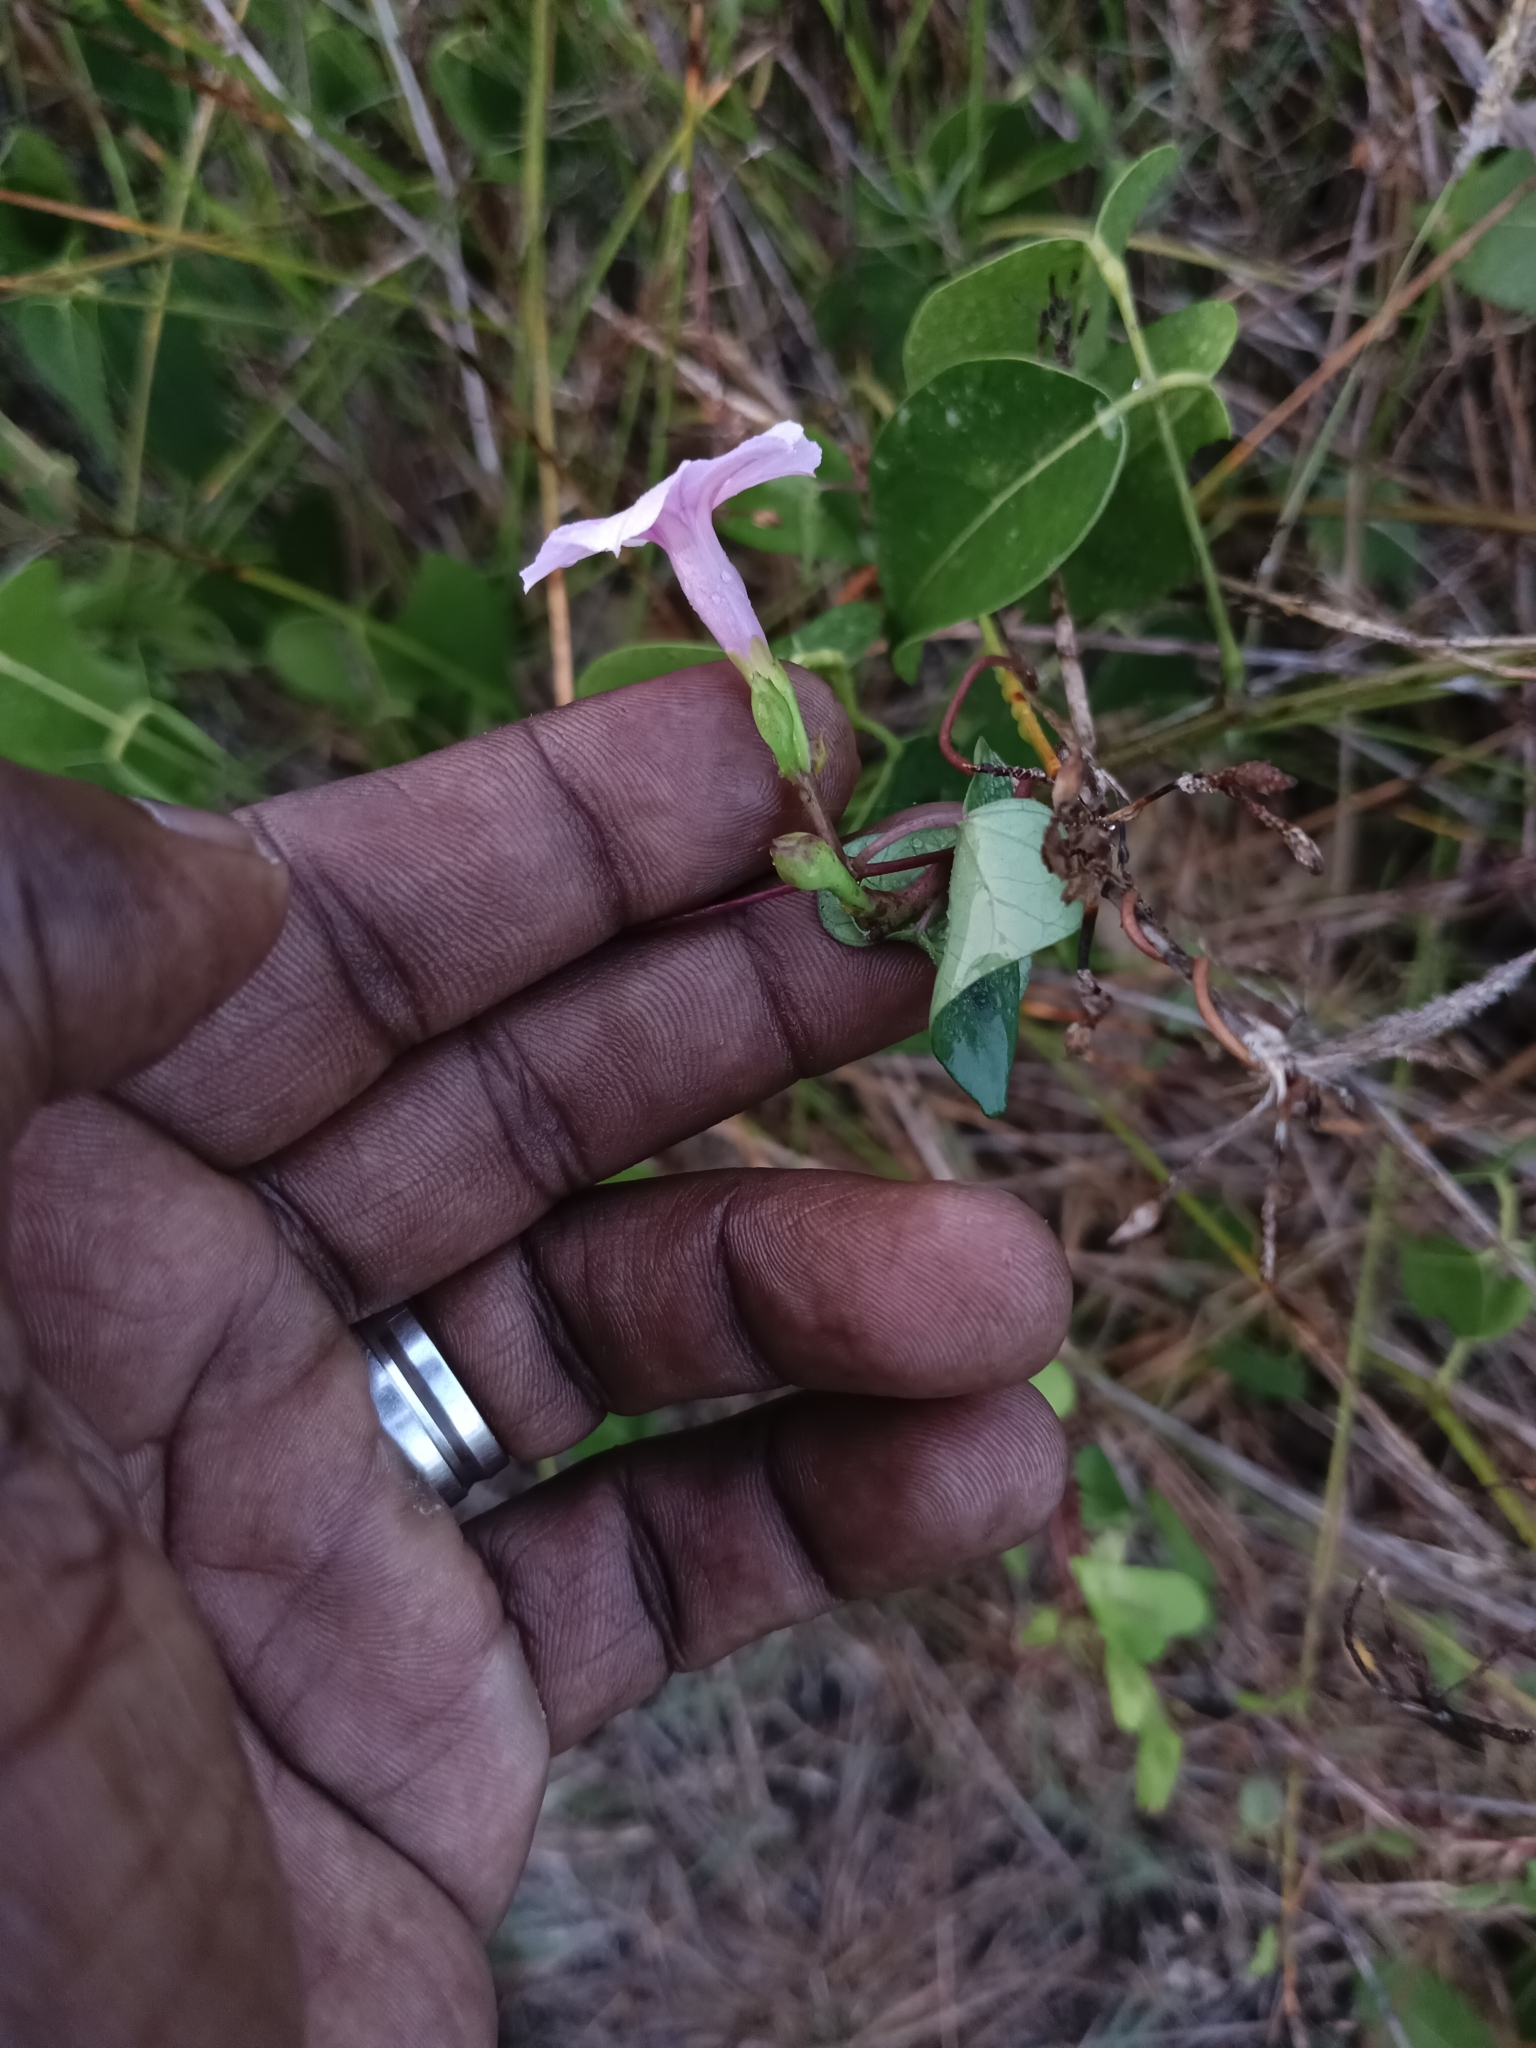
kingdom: Plantae
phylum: Tracheophyta
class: Magnoliopsida
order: Solanales
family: Convolvulaceae
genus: Ipomoea
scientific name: Ipomoea triloba
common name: Little-bell
